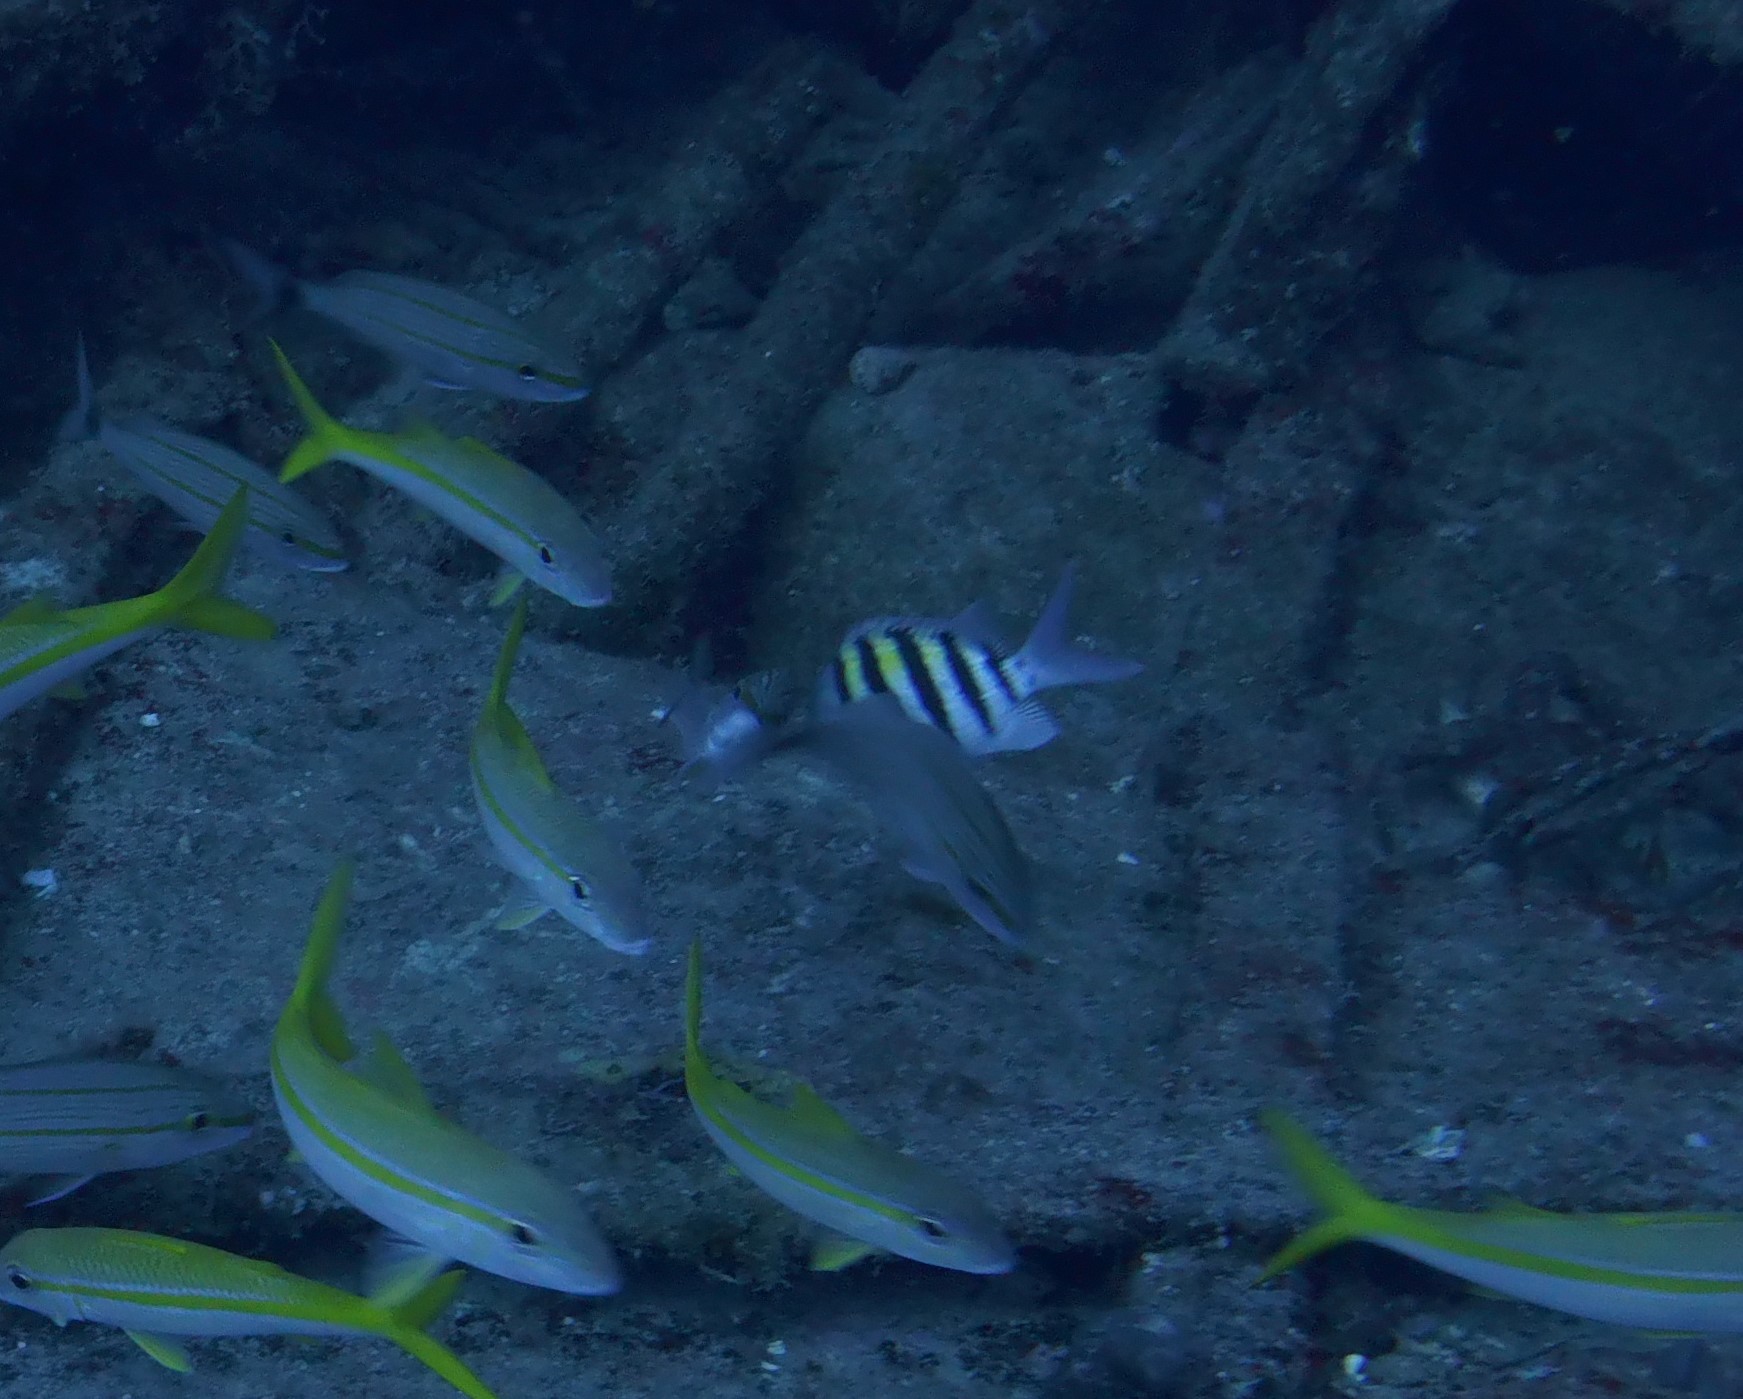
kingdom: Animalia
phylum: Chordata
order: Perciformes
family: Pomacentridae
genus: Abudefduf
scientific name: Abudefduf saxatilis
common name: Sergeant major
